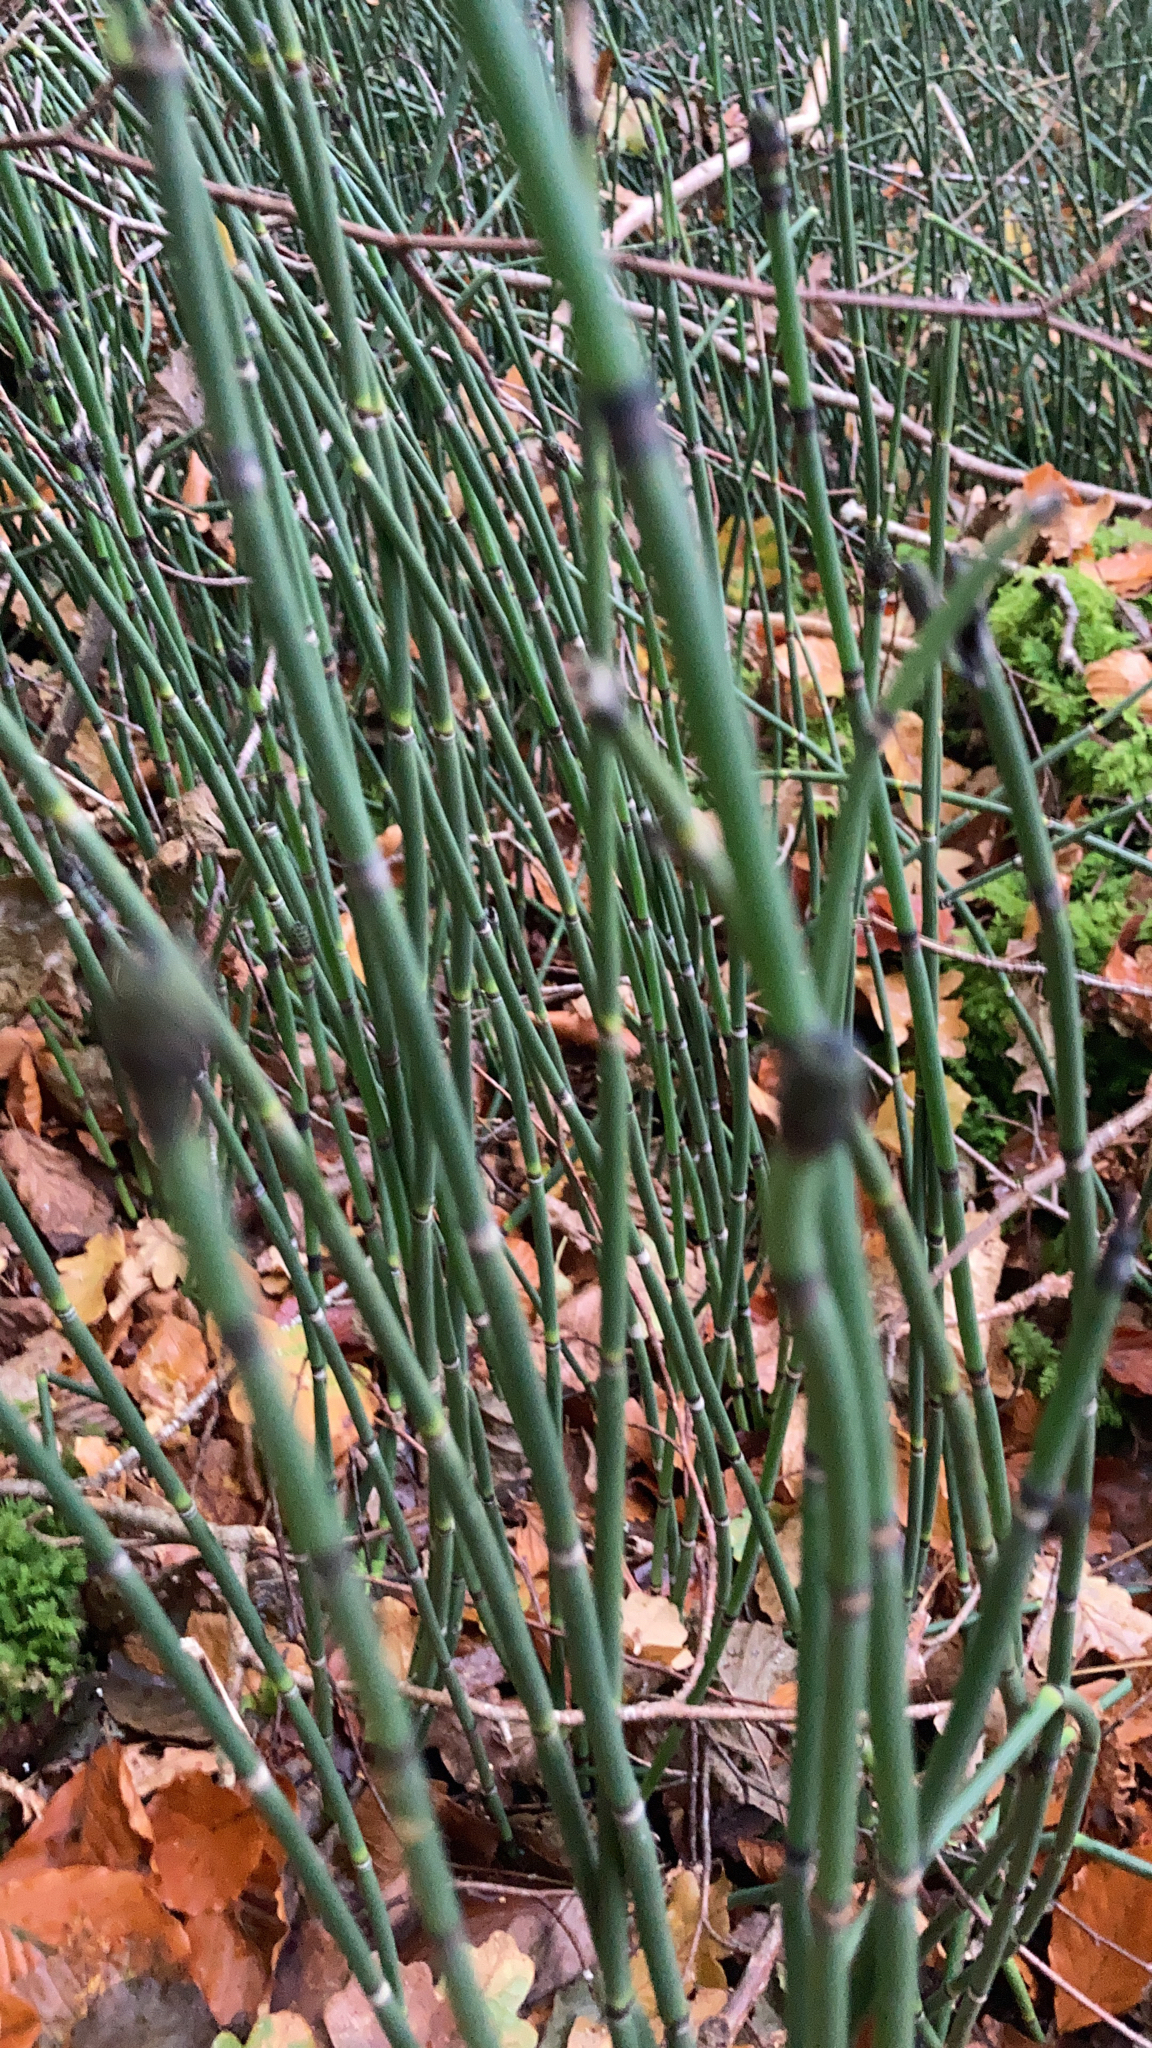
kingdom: Plantae
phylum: Tracheophyta
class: Polypodiopsida
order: Equisetales
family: Equisetaceae
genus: Equisetum
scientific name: Equisetum hyemale
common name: Rough horsetail
